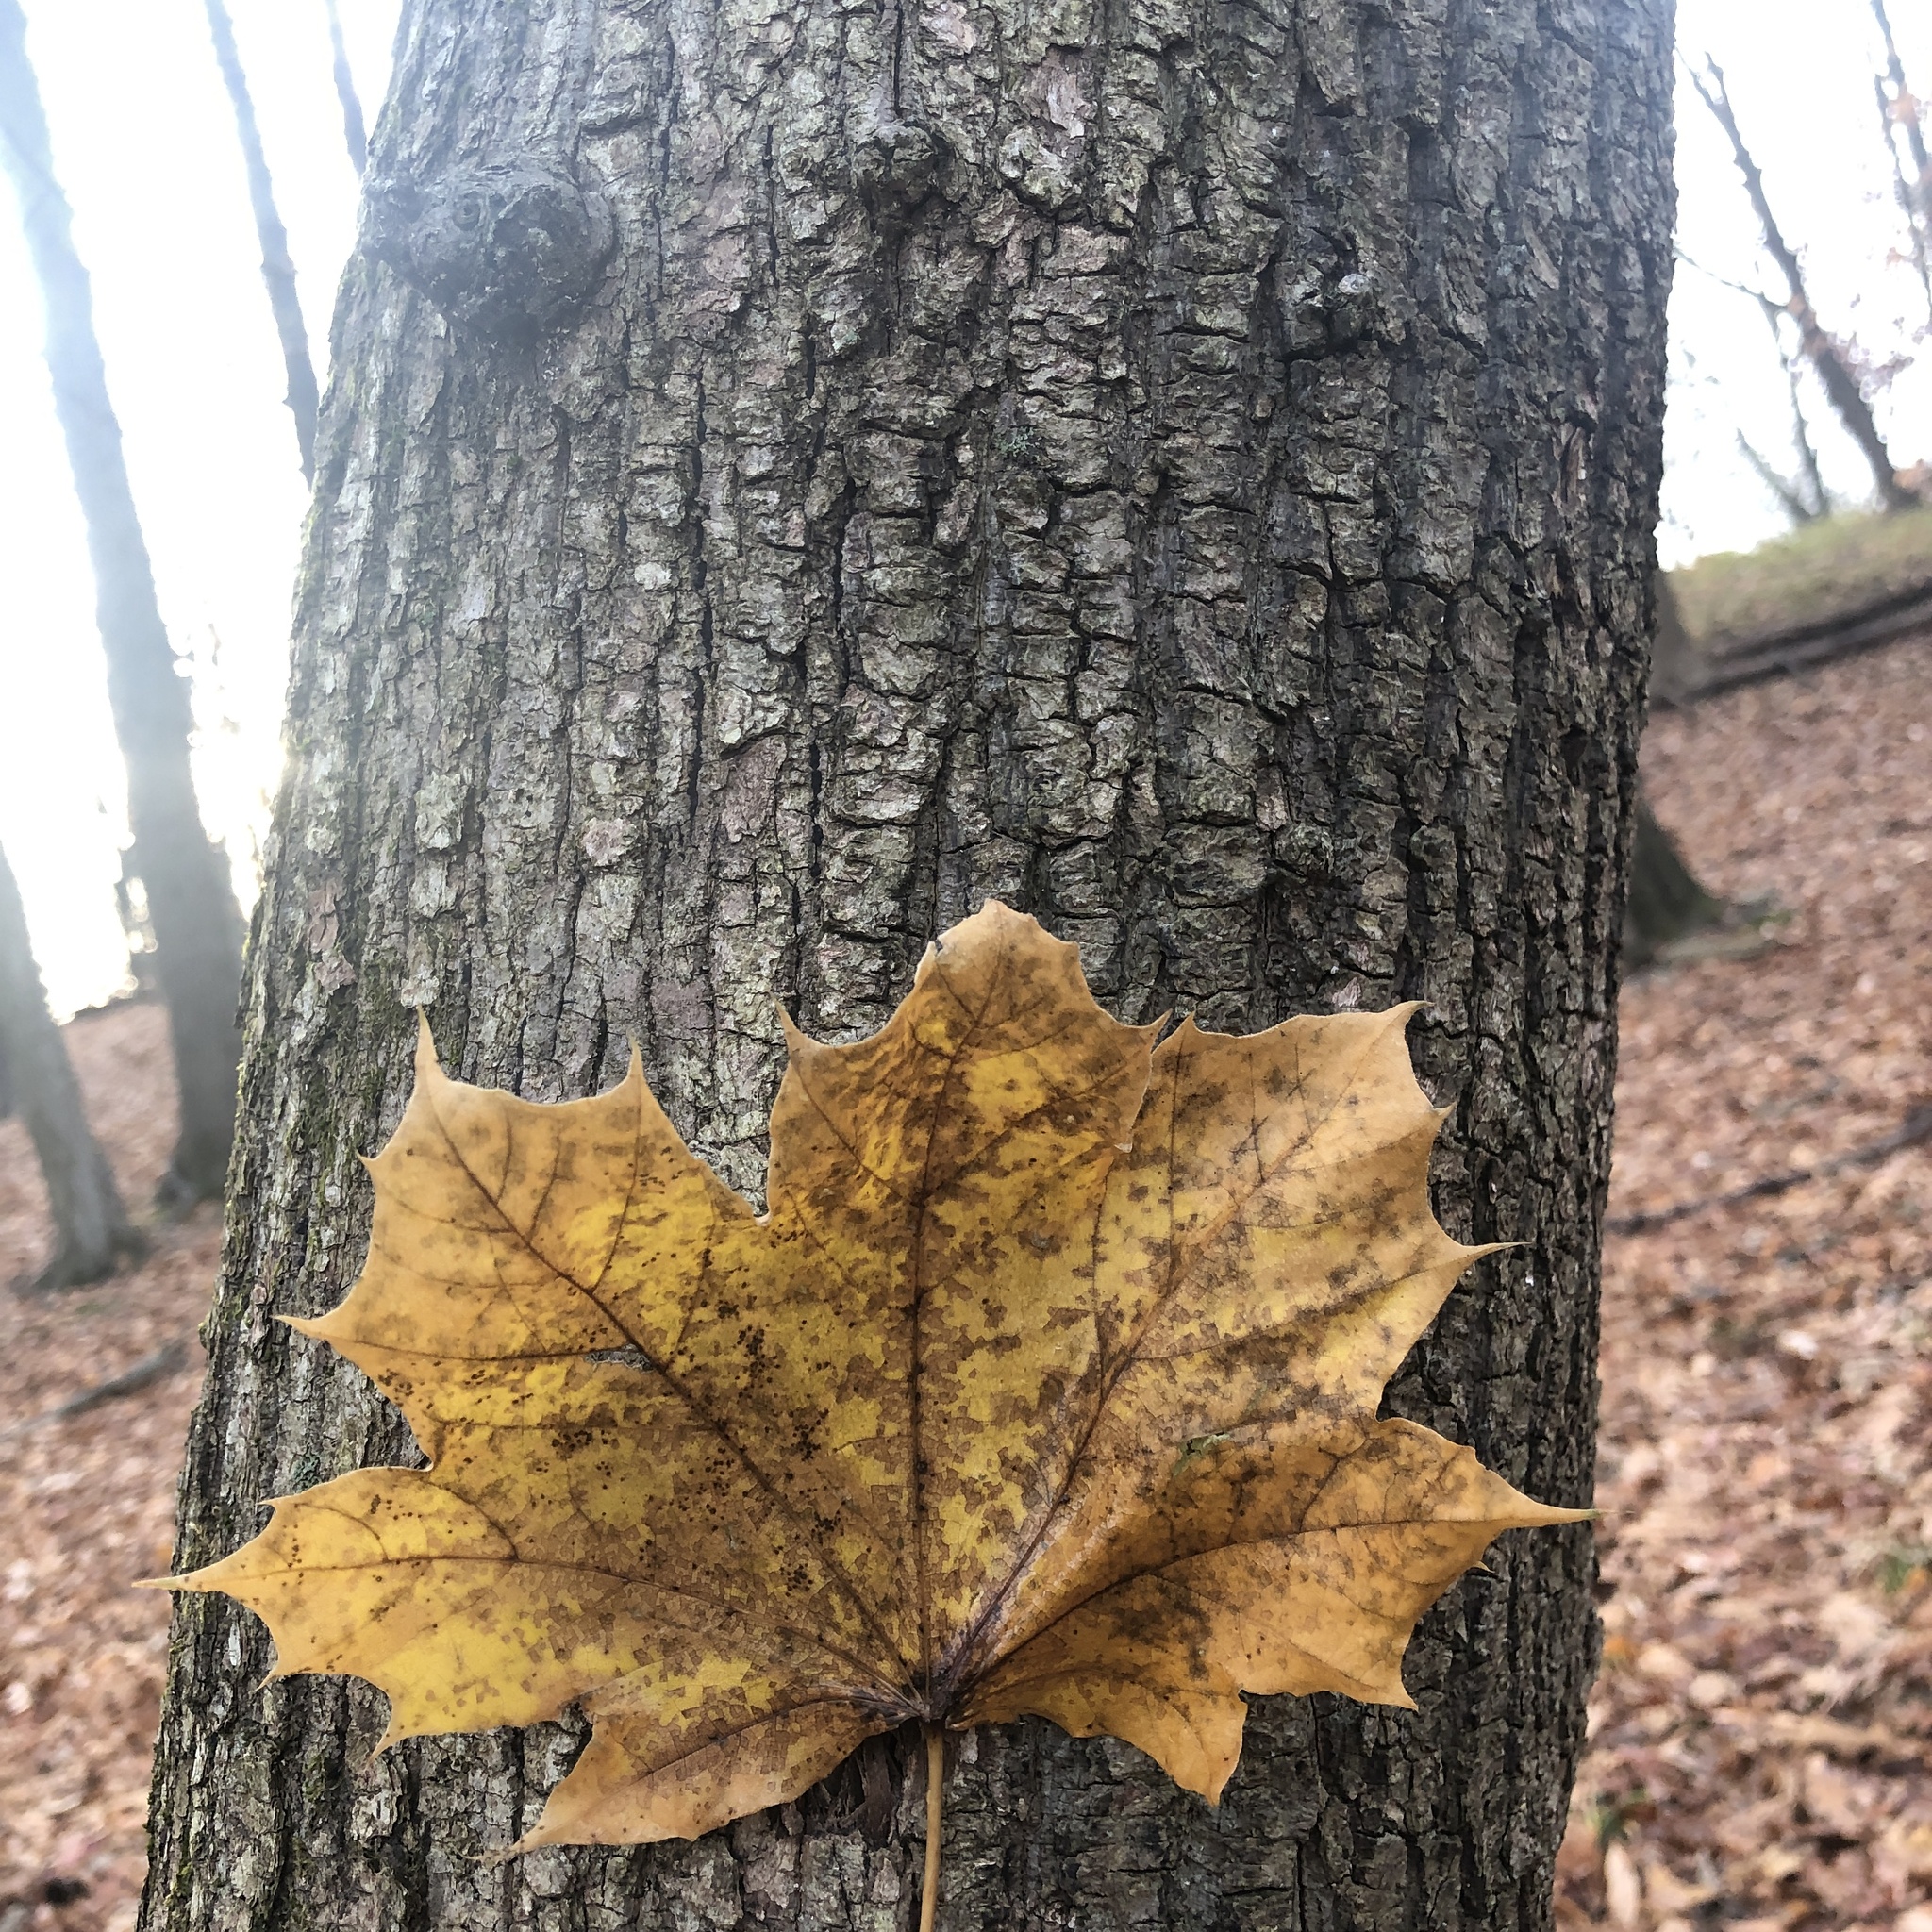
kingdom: Plantae
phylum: Tracheophyta
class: Magnoliopsida
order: Sapindales
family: Sapindaceae
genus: Acer
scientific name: Acer platanoides
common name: Norway maple
